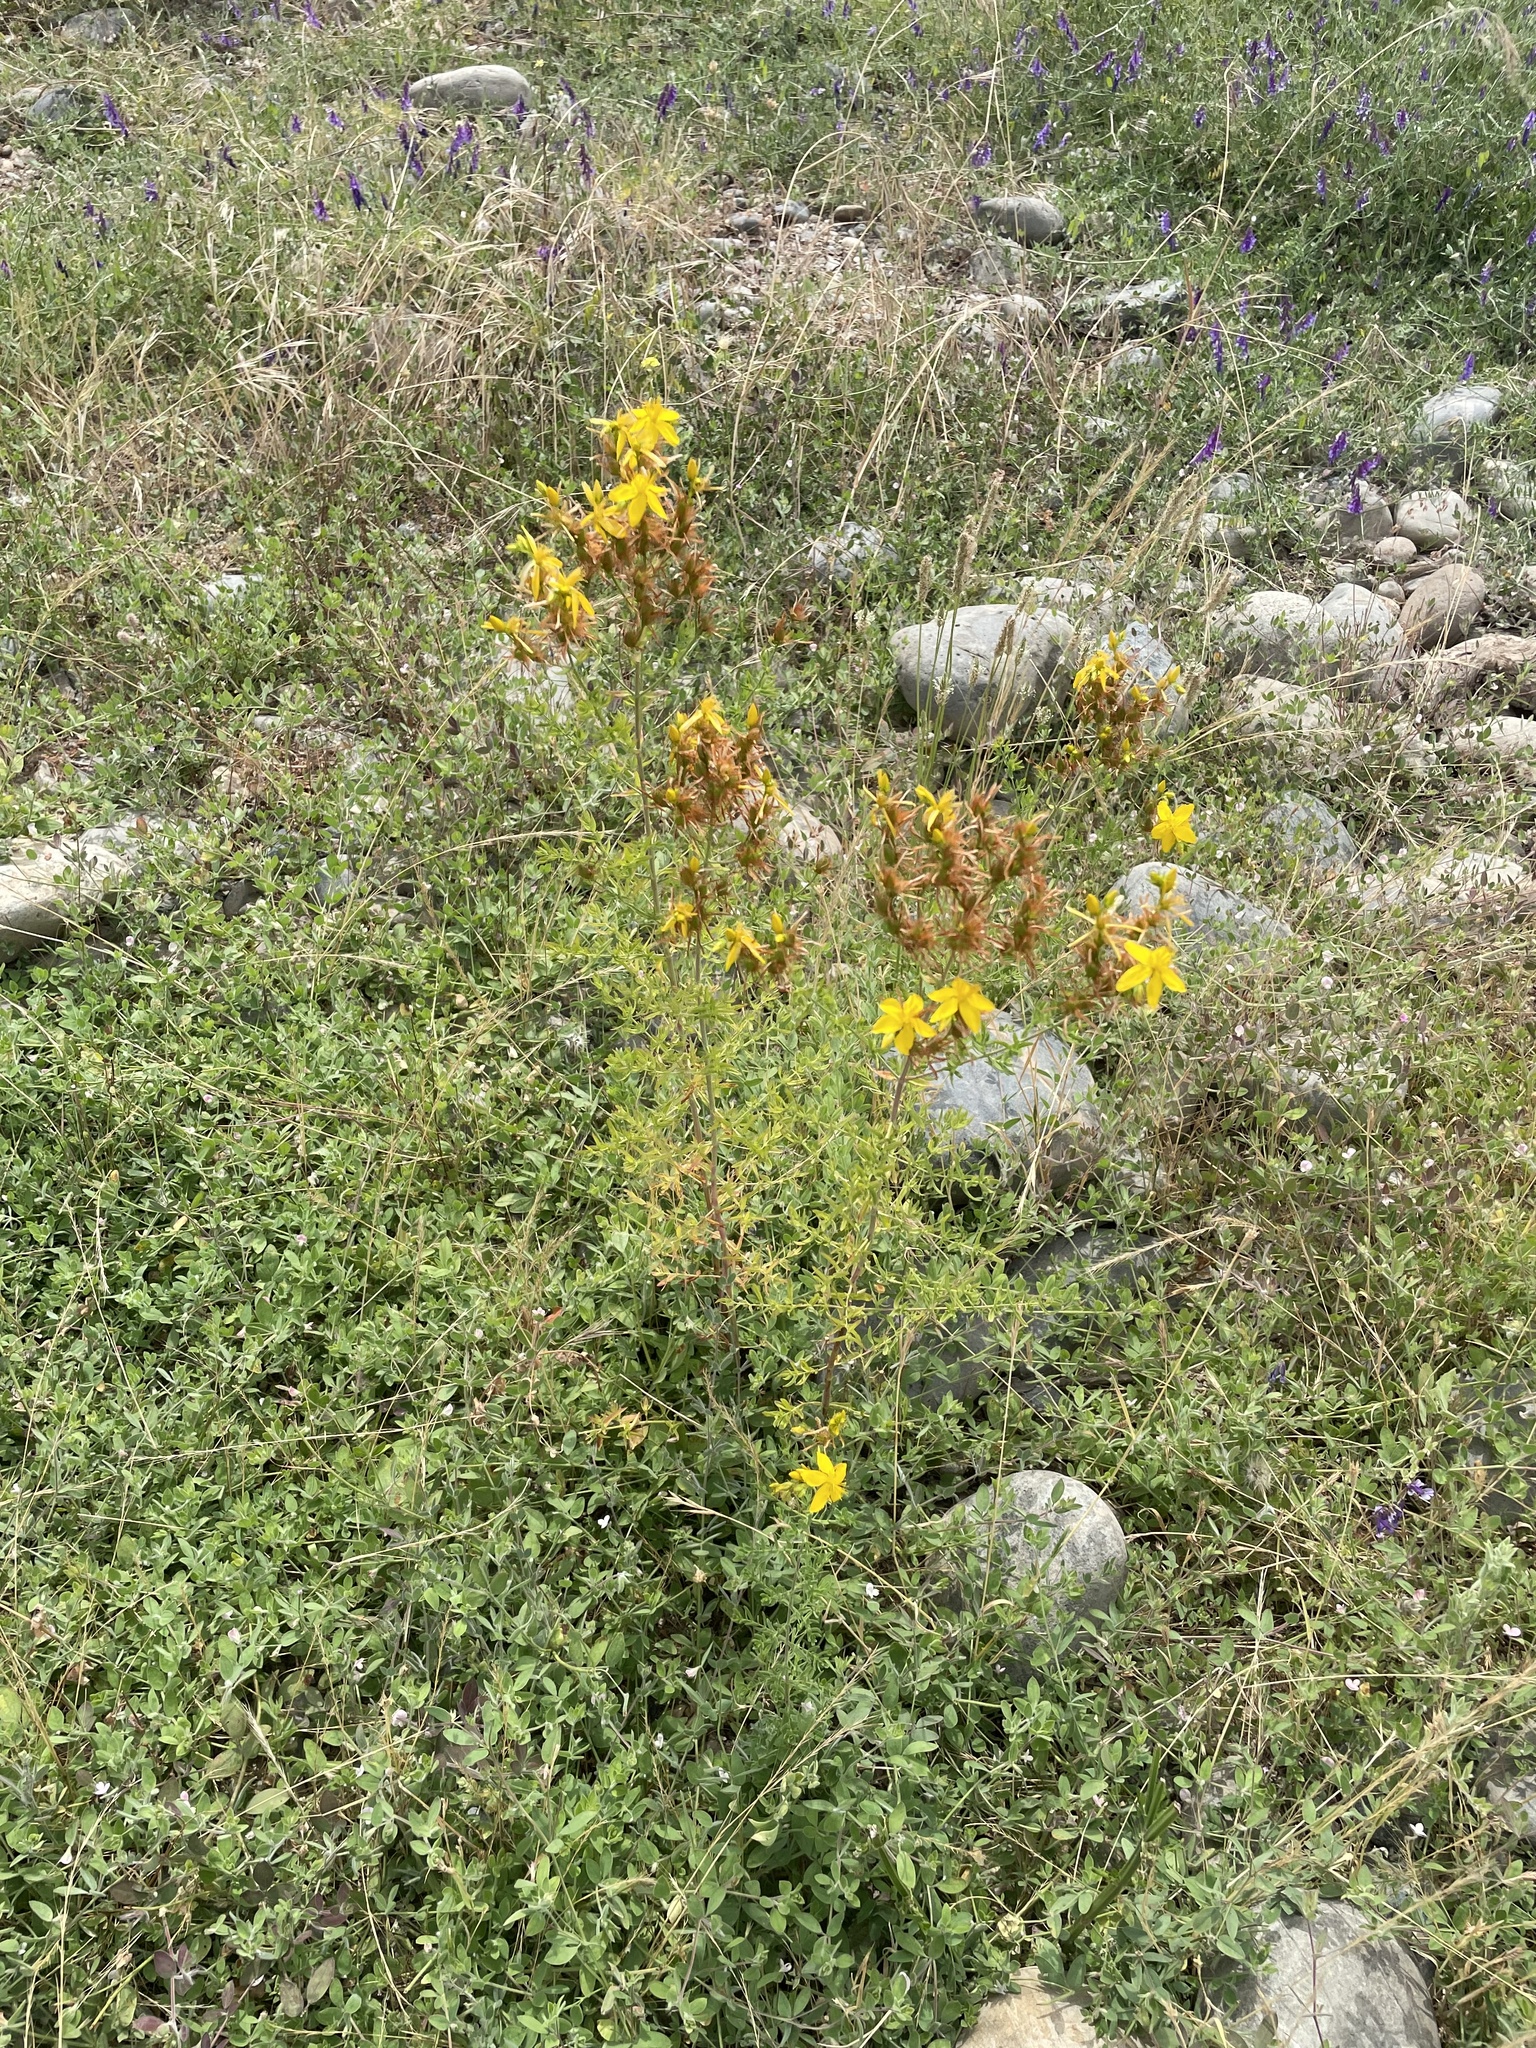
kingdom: Plantae
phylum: Tracheophyta
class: Magnoliopsida
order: Malpighiales
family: Hypericaceae
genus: Hypericum
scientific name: Hypericum perforatum
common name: Common st. johnswort
